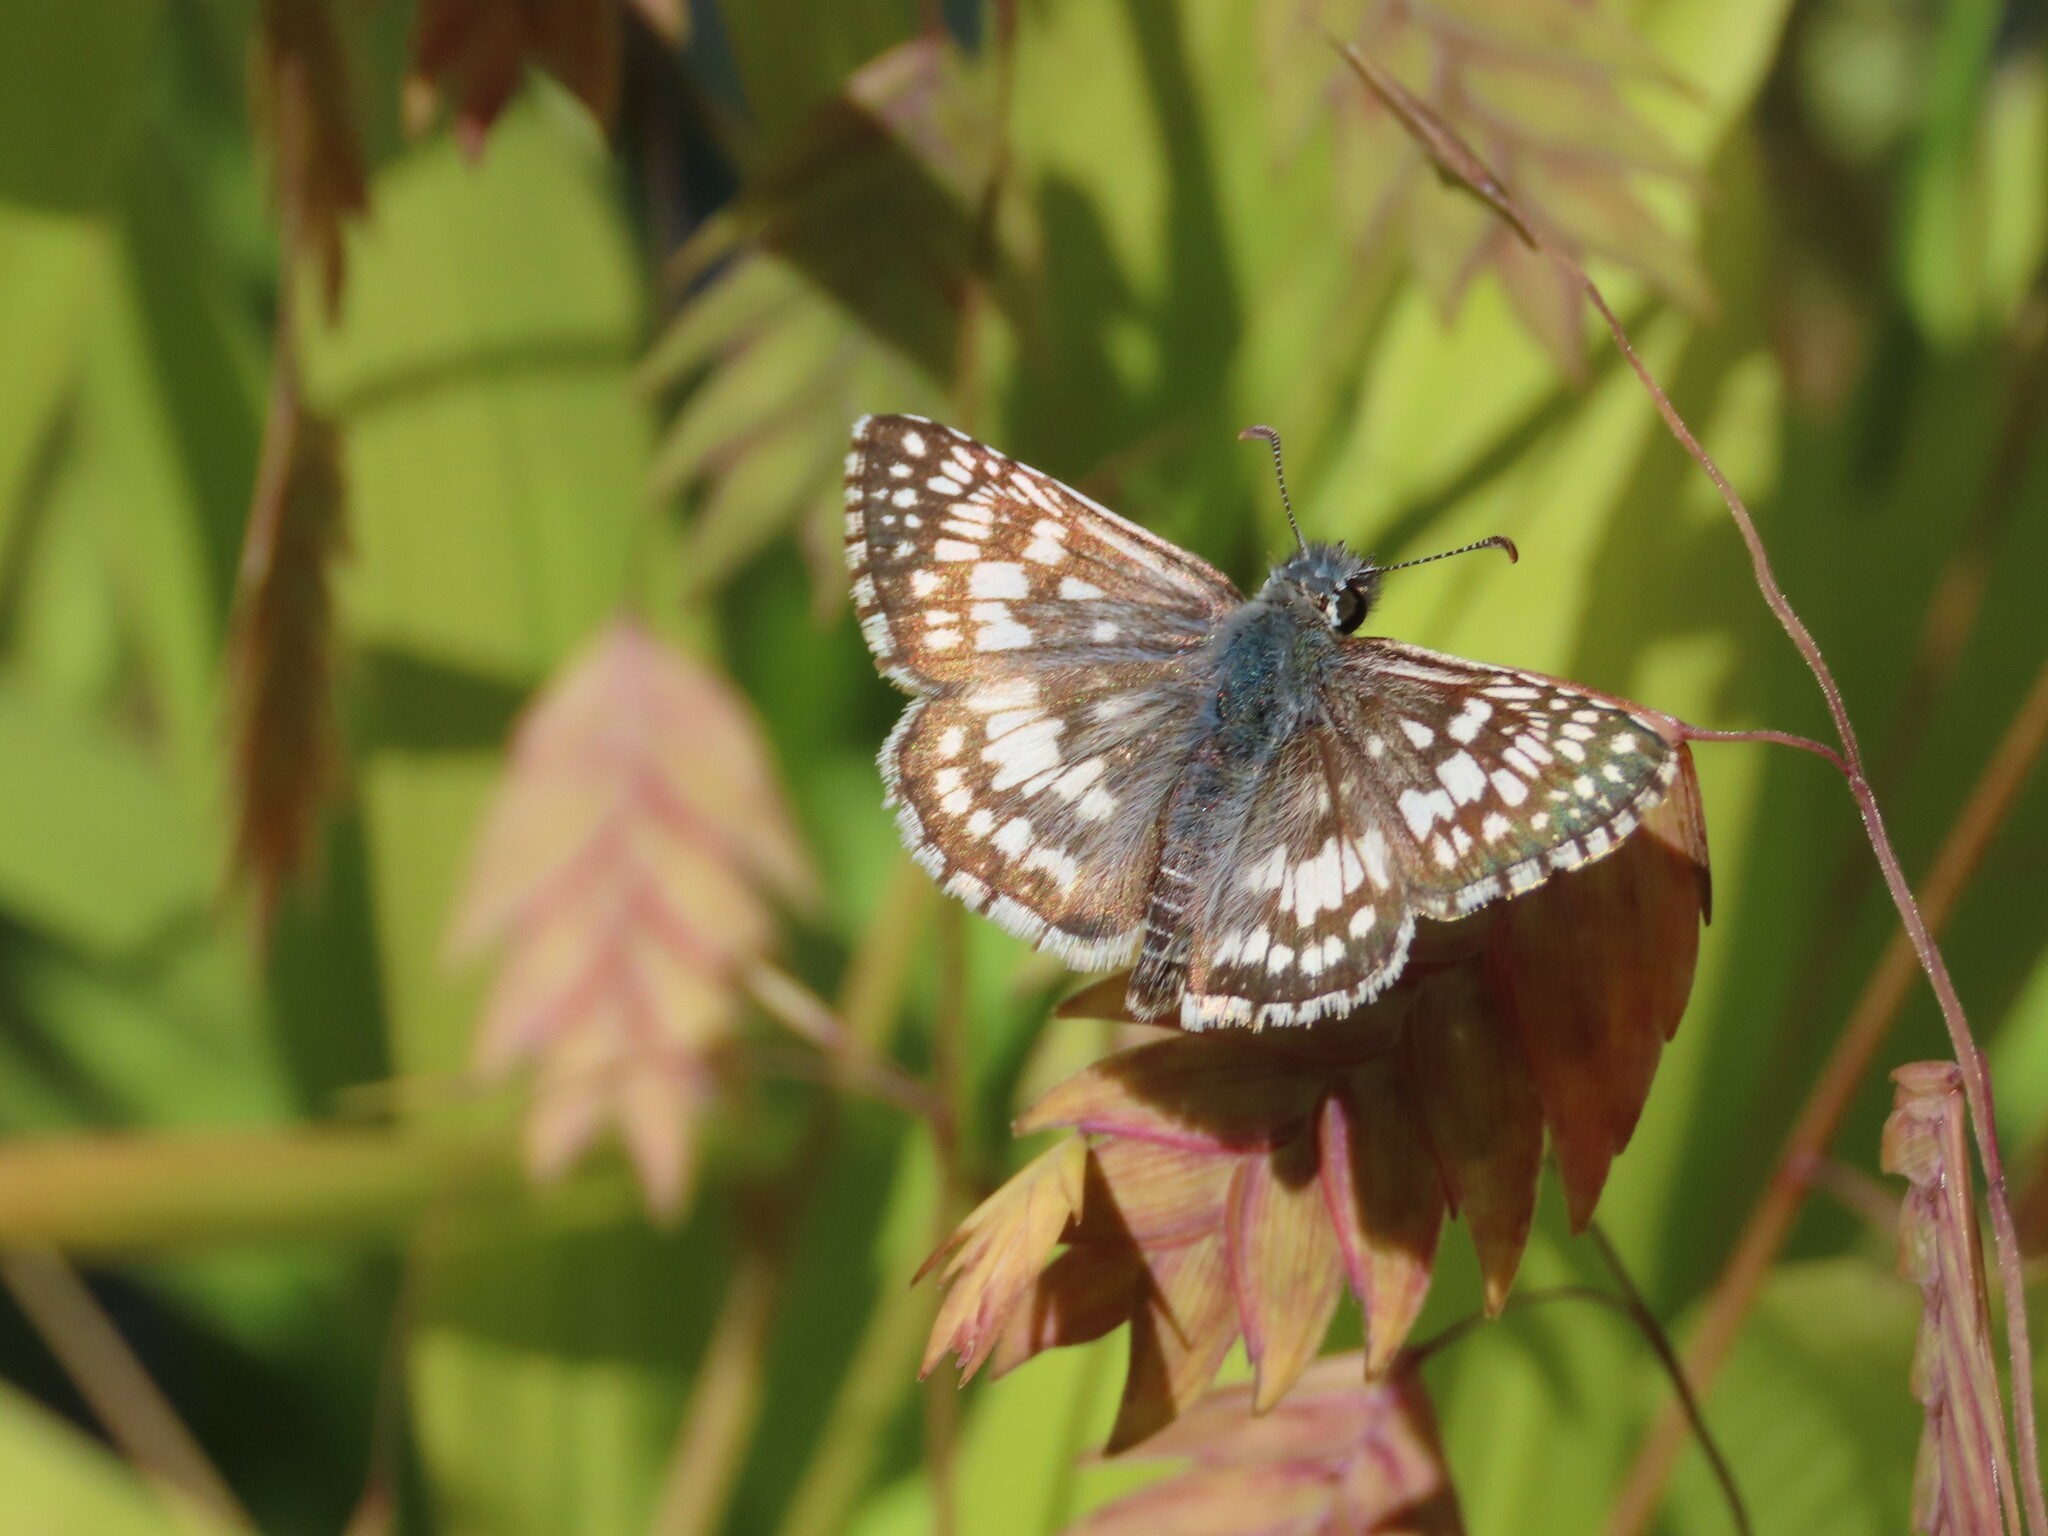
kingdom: Animalia
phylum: Arthropoda
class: Insecta
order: Lepidoptera
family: Hesperiidae
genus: Burnsius
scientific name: Burnsius communis
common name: Common checkered-skipper
